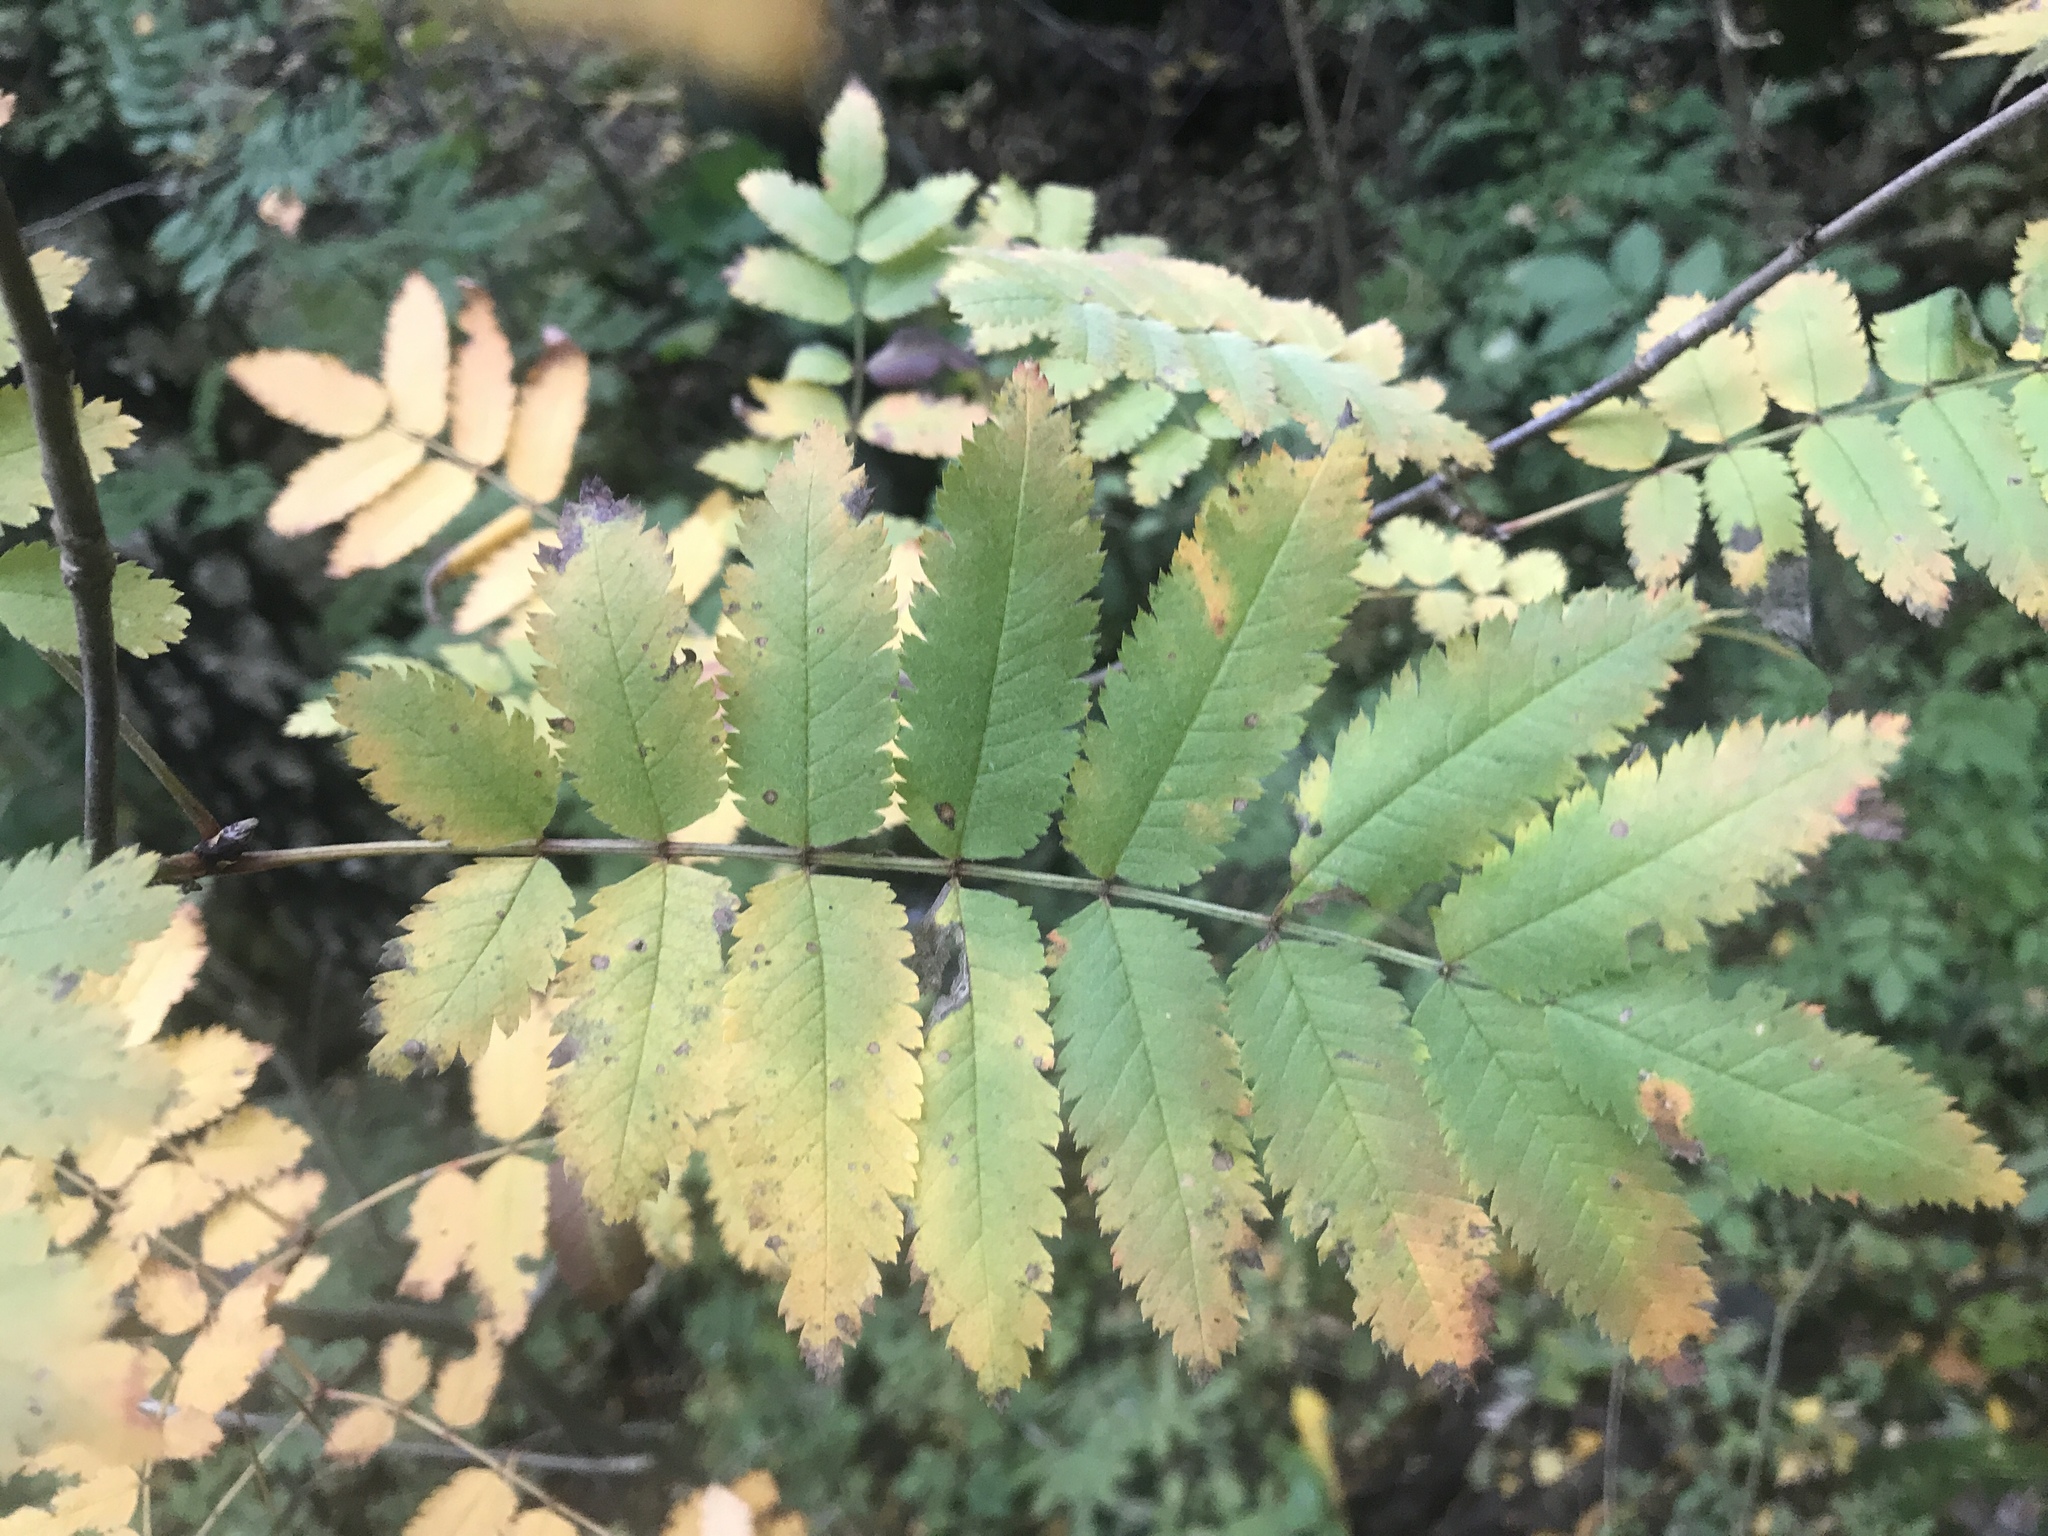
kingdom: Plantae
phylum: Tracheophyta
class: Magnoliopsida
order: Rosales
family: Rosaceae
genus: Sorbus
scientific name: Sorbus aucuparia
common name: Rowan
